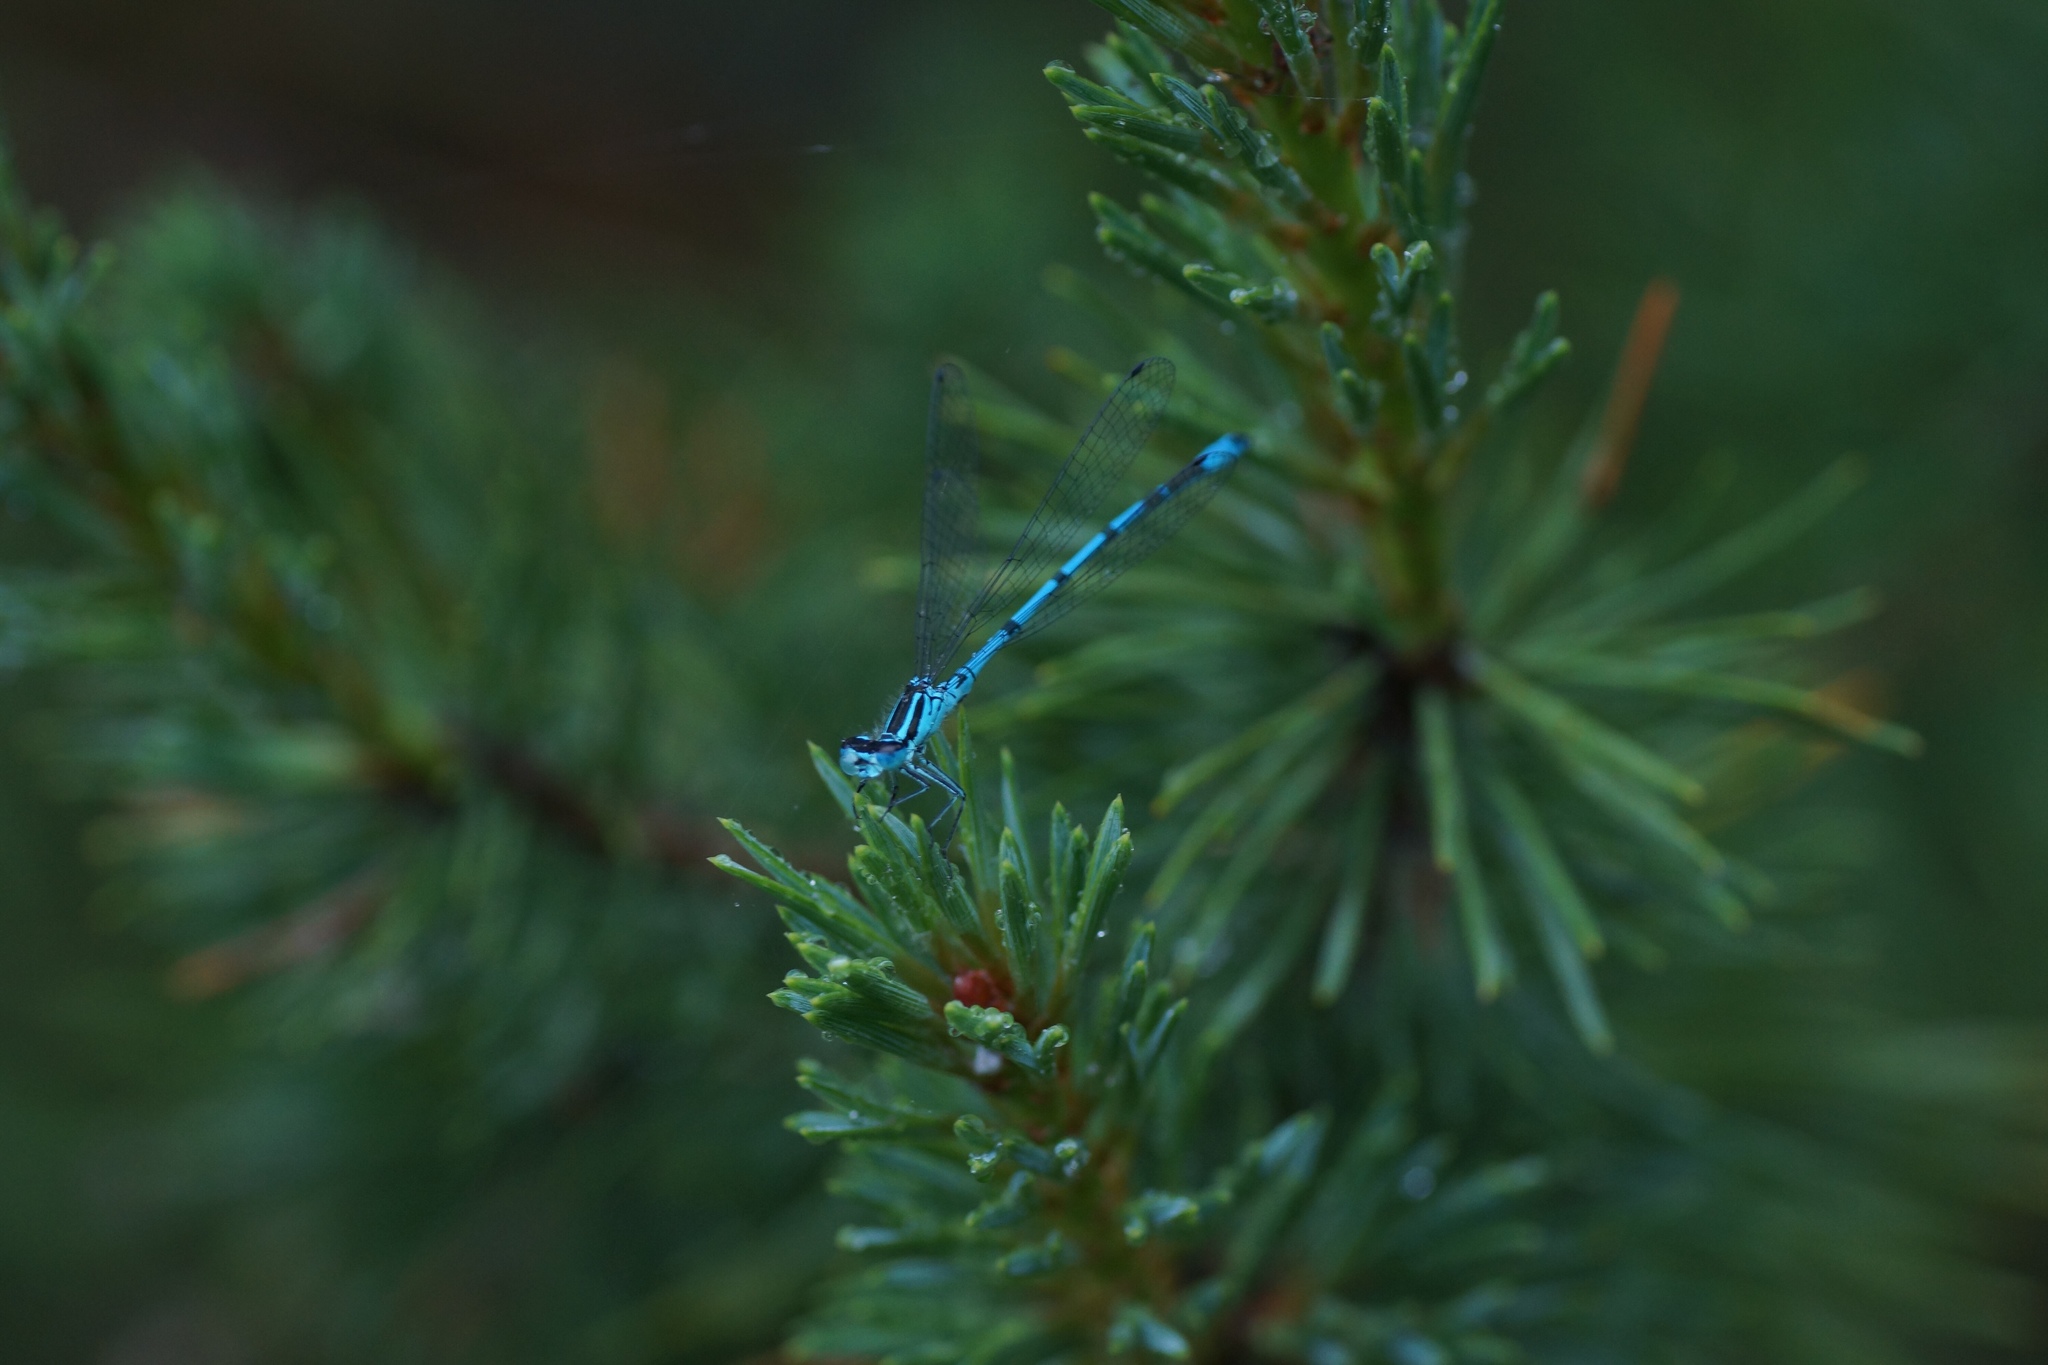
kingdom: Animalia
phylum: Arthropoda
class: Insecta
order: Odonata
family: Coenagrionidae
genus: Coenagrion
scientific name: Coenagrion puella
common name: Azure damselfly
